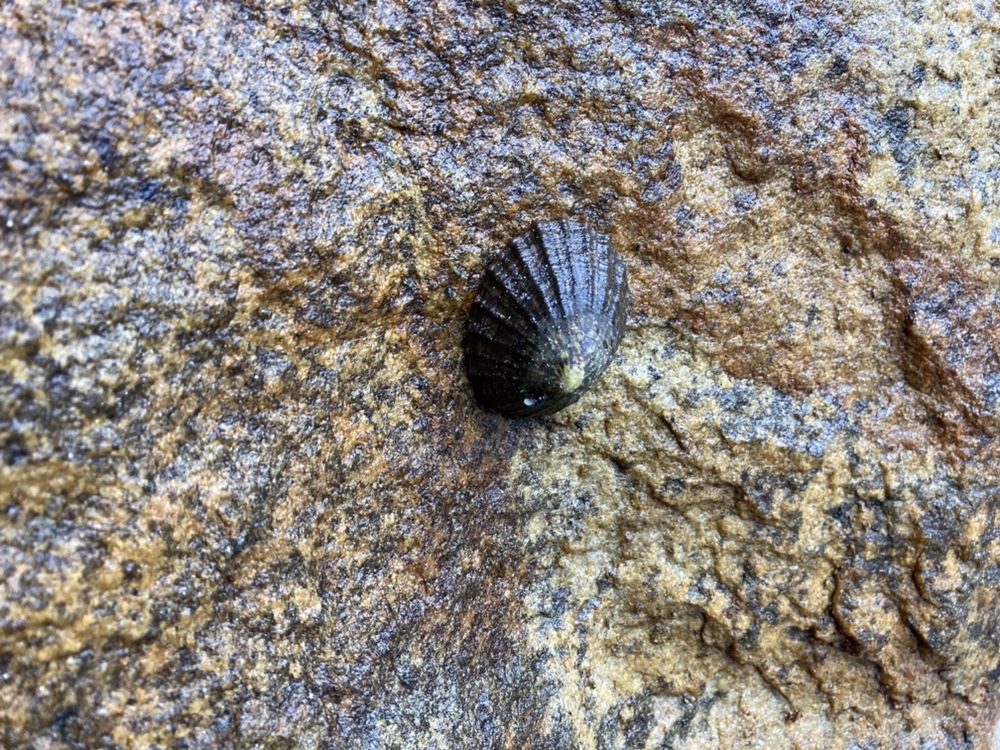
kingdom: Animalia
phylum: Mollusca
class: Gastropoda
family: Nacellidae
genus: Cellana
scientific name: Cellana strigilis
